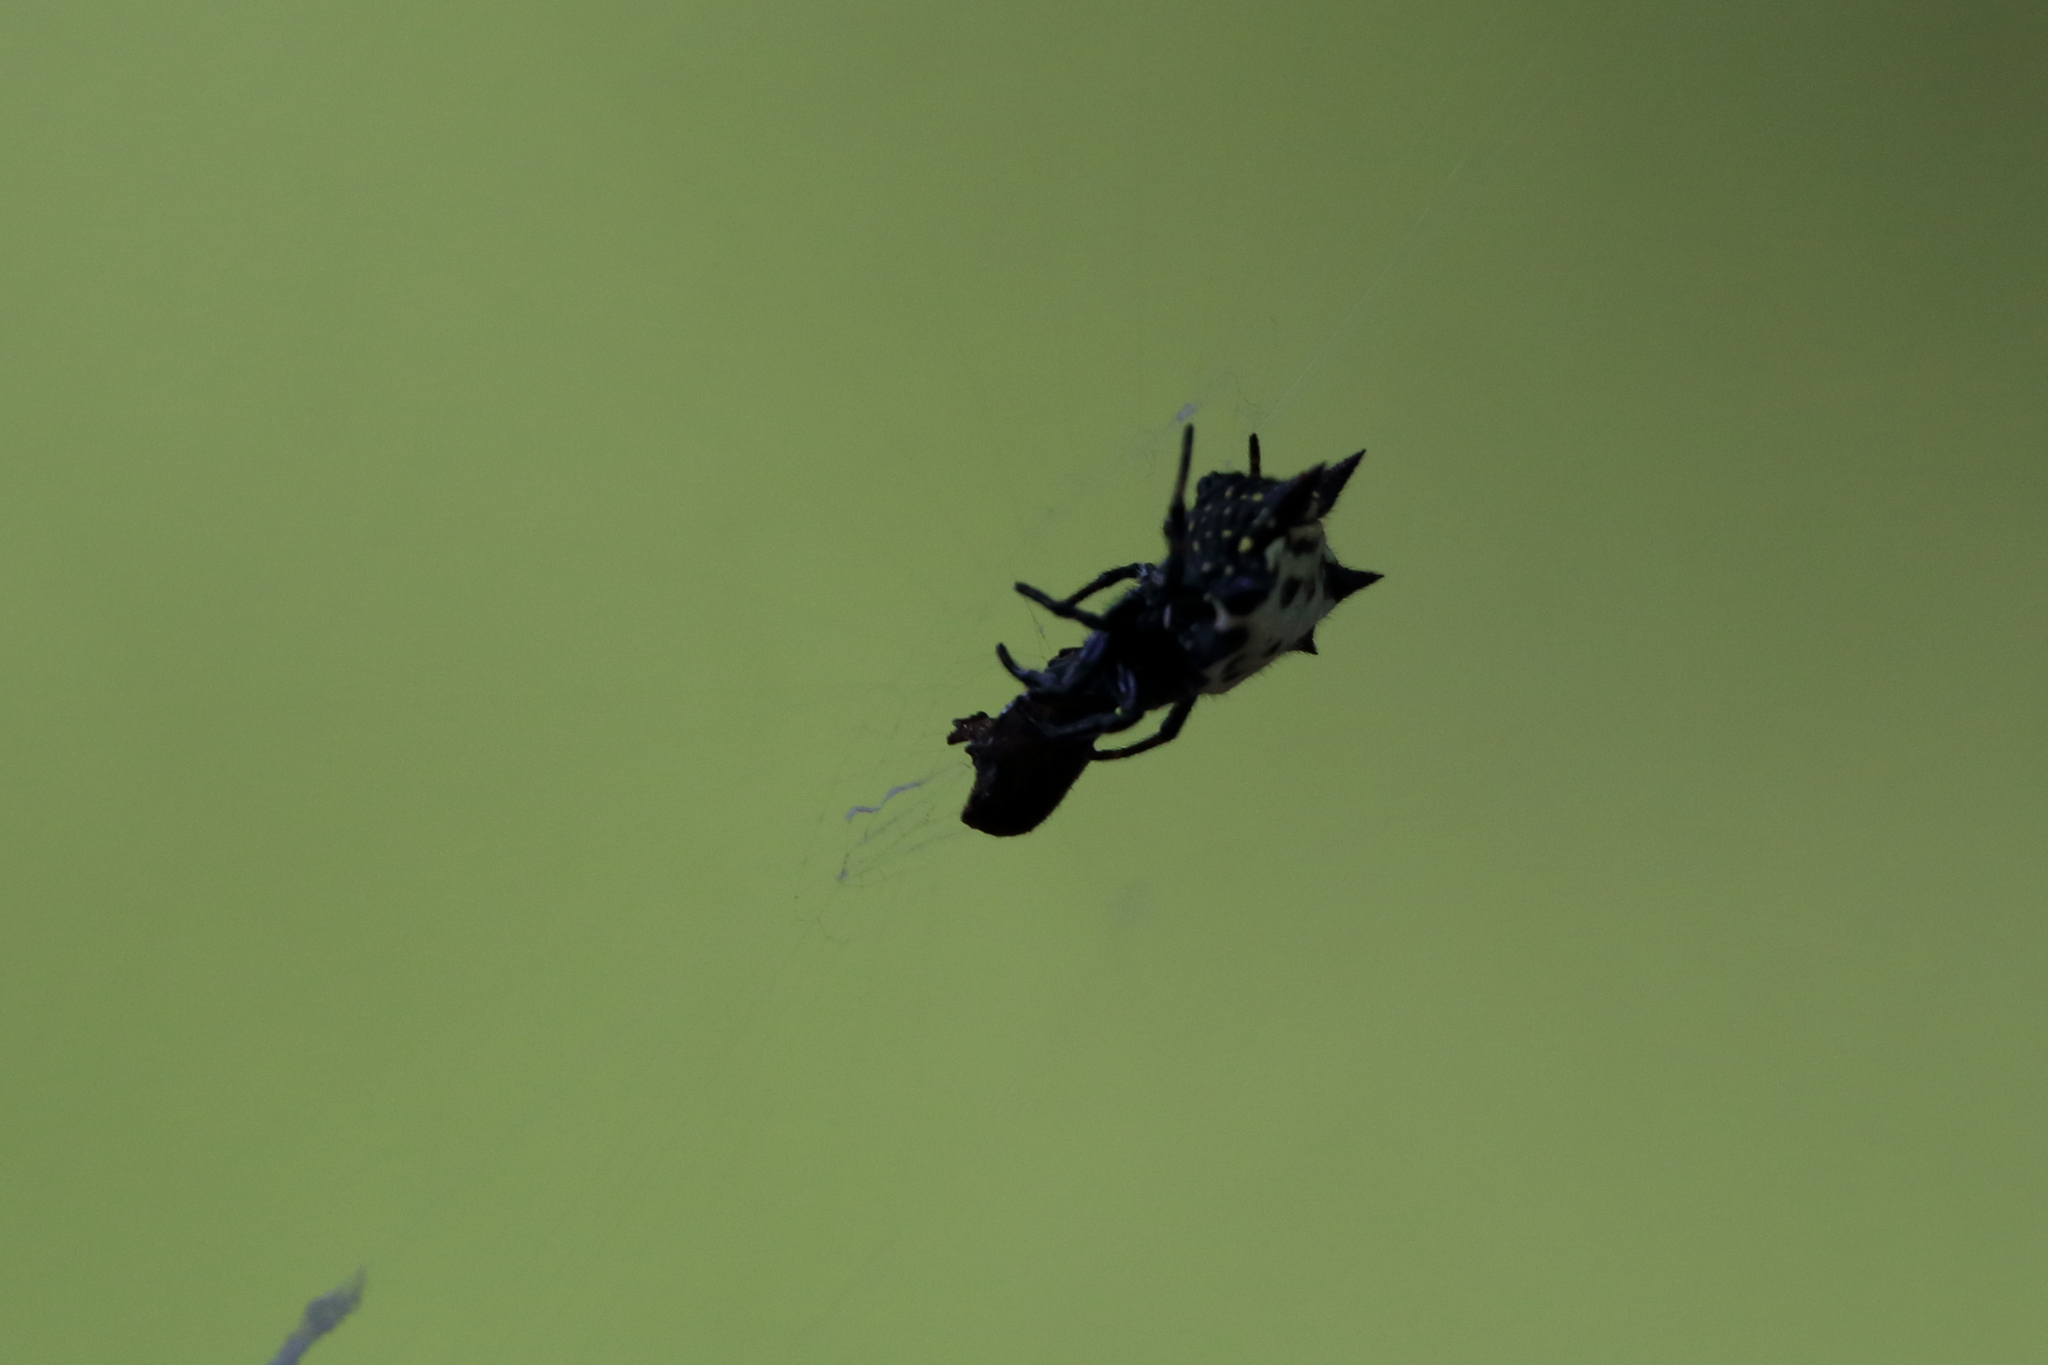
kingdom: Animalia
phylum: Arthropoda
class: Arachnida
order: Araneae
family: Araneidae
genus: Gasteracantha
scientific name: Gasteracantha cancriformis
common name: Orb weavers
